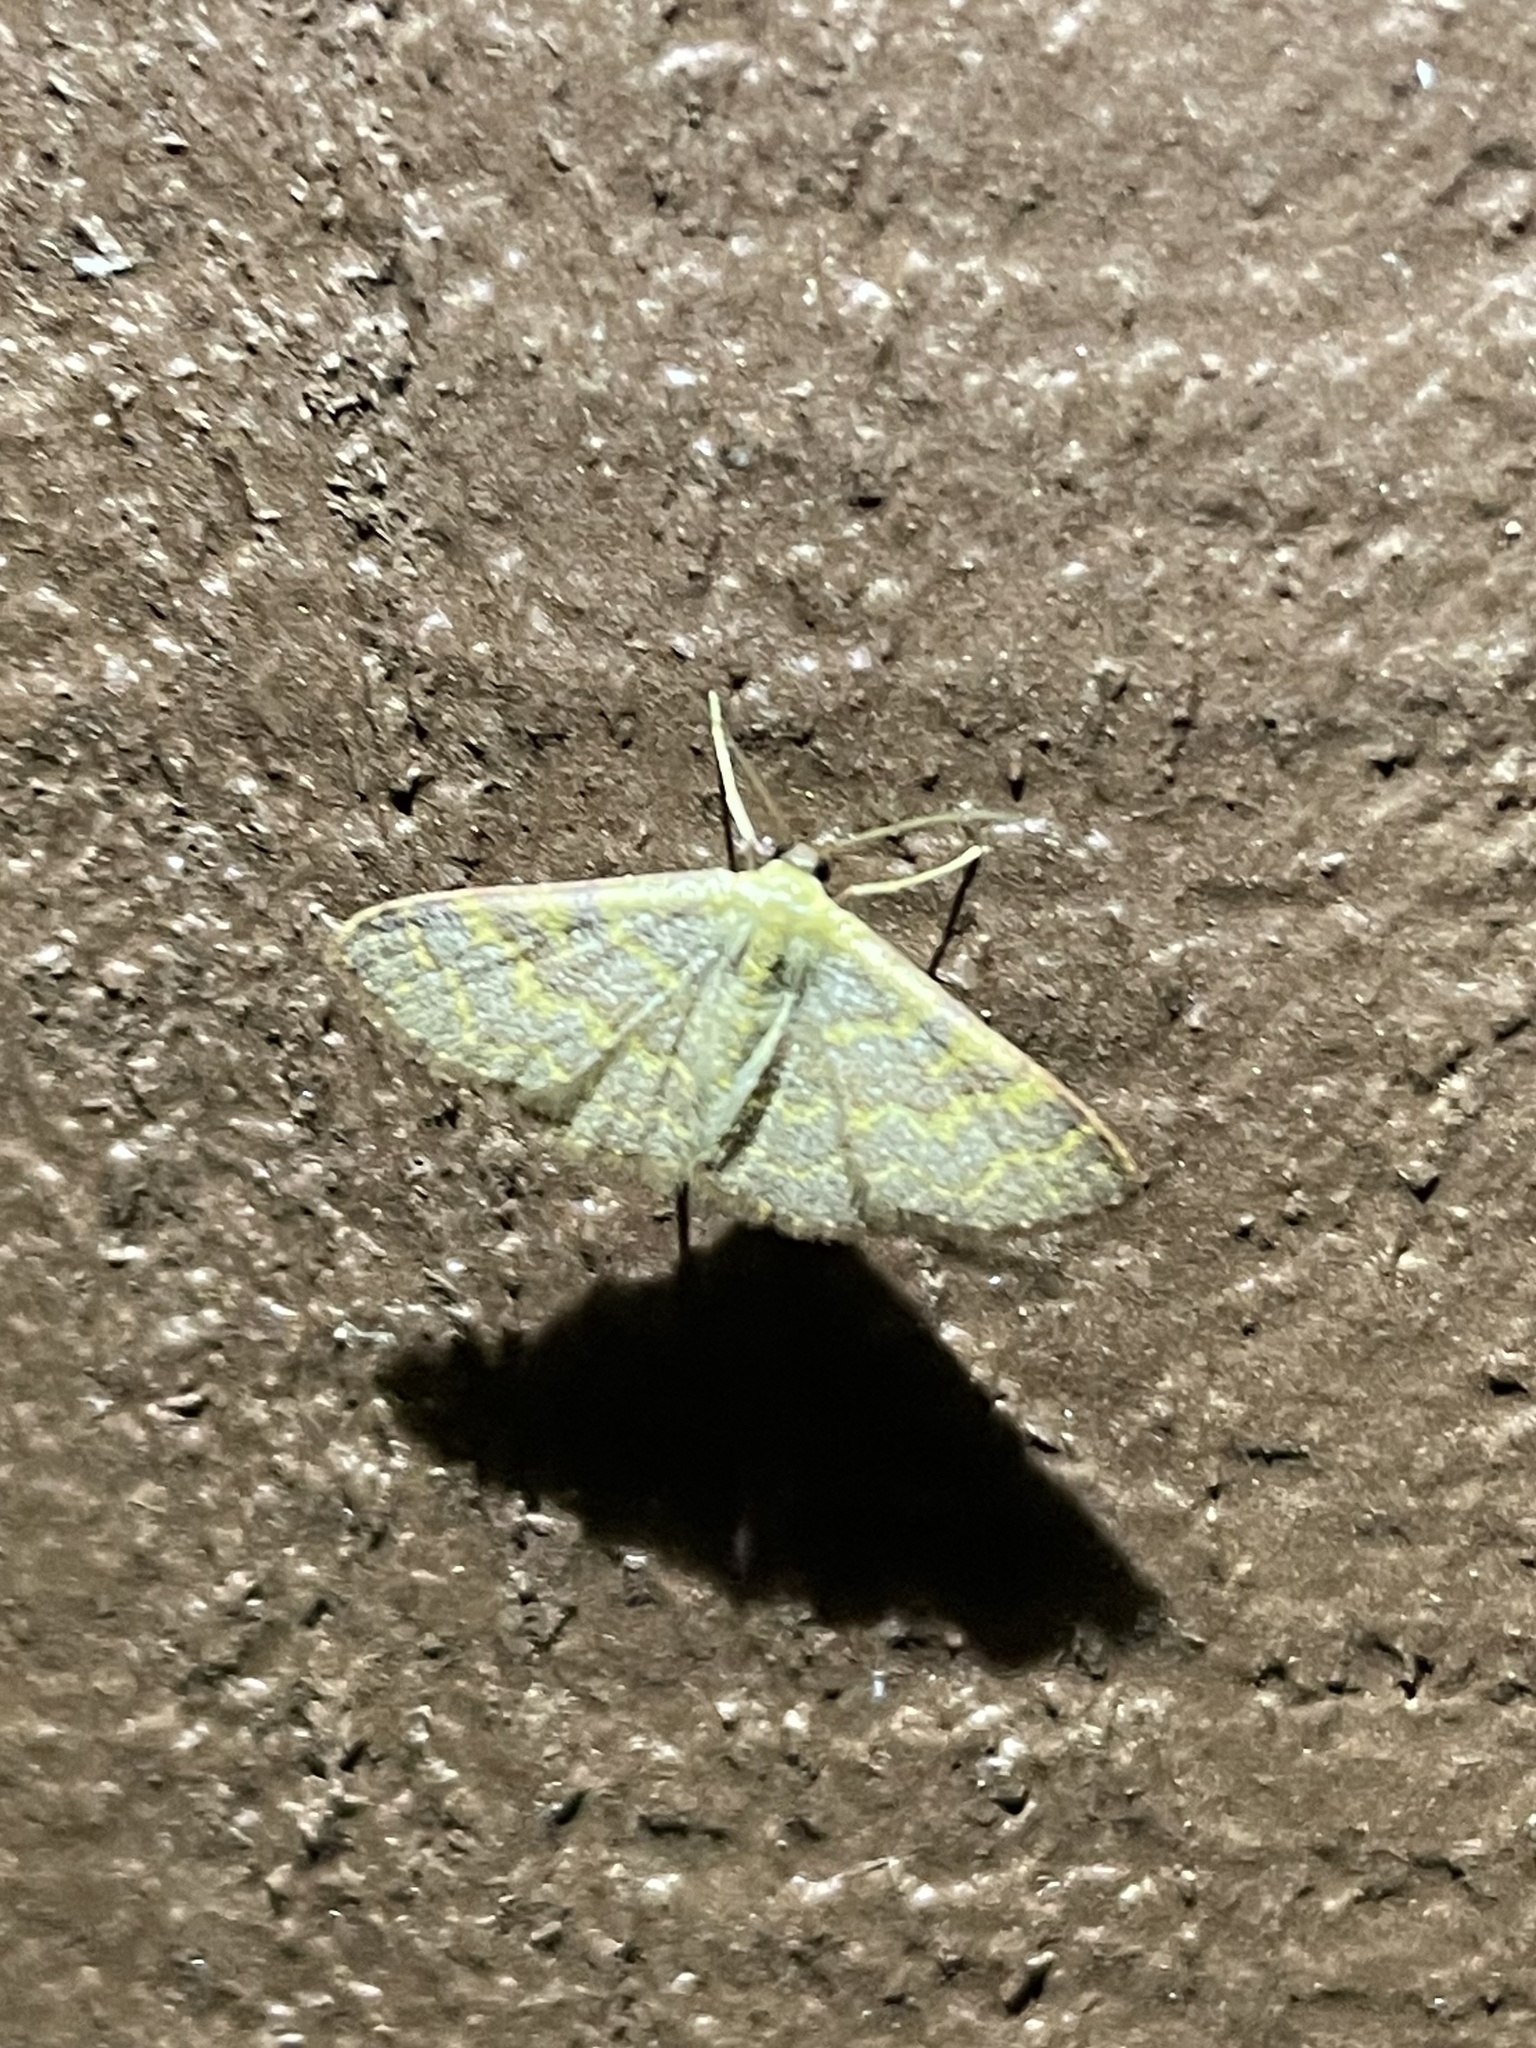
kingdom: Animalia
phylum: Arthropoda
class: Insecta
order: Lepidoptera
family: Geometridae
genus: Leptostales
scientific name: Leptostales pannaria
